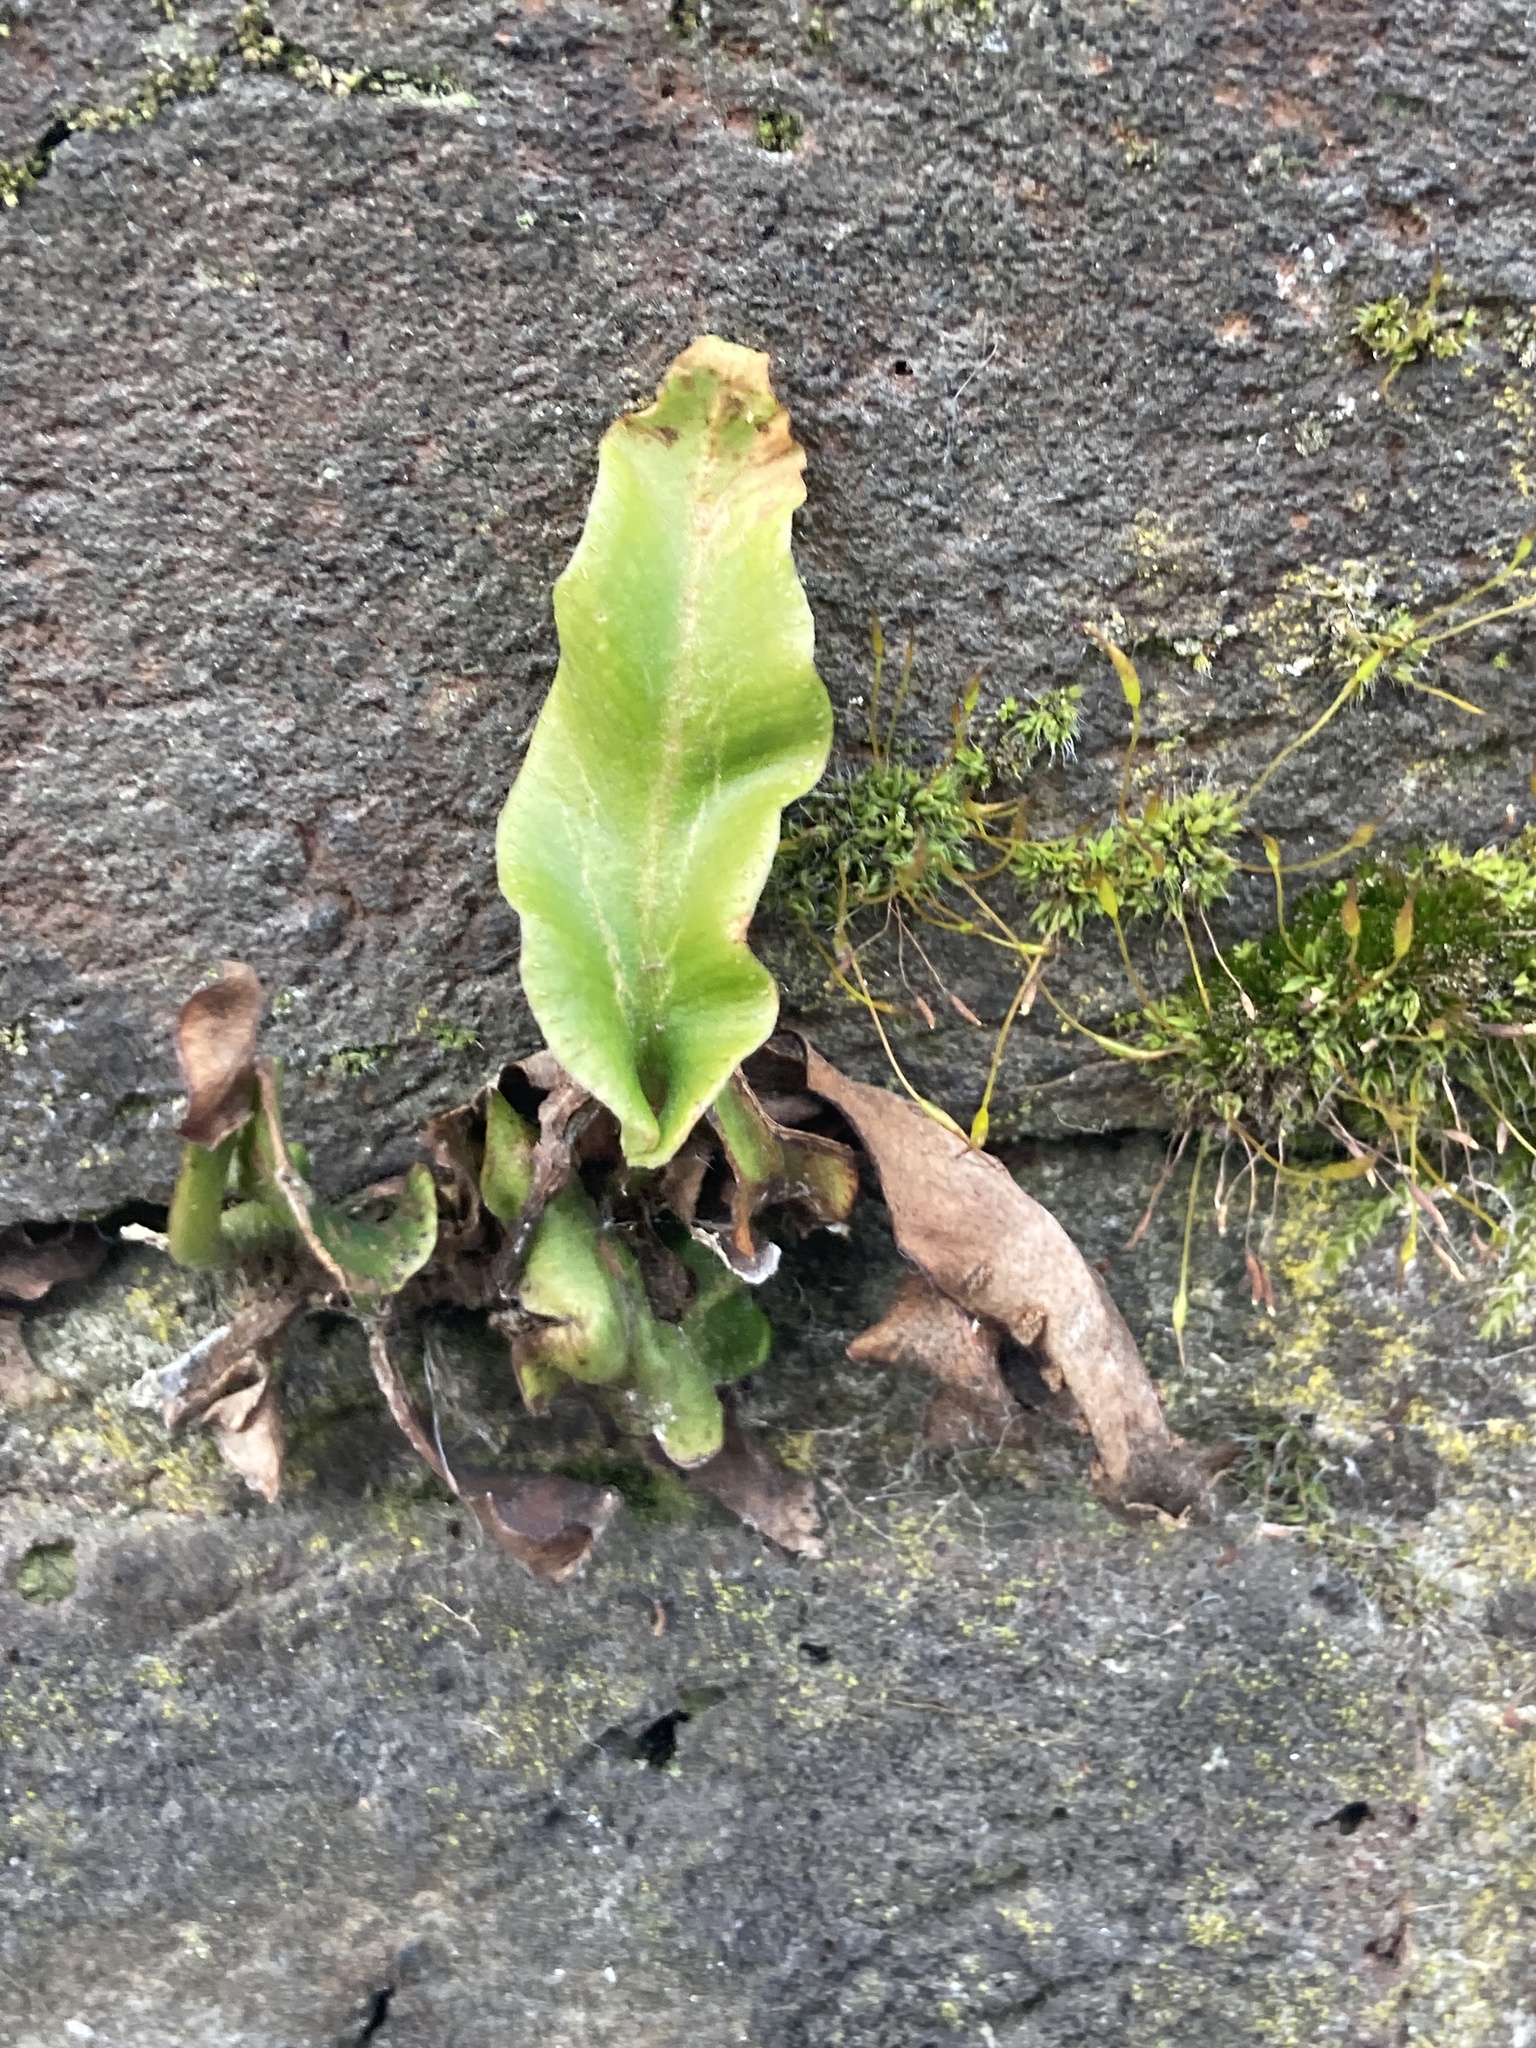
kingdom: Plantae
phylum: Tracheophyta
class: Polypodiopsida
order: Polypodiales
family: Aspleniaceae
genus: Asplenium
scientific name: Asplenium scolopendrium
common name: Hart's-tongue fern
